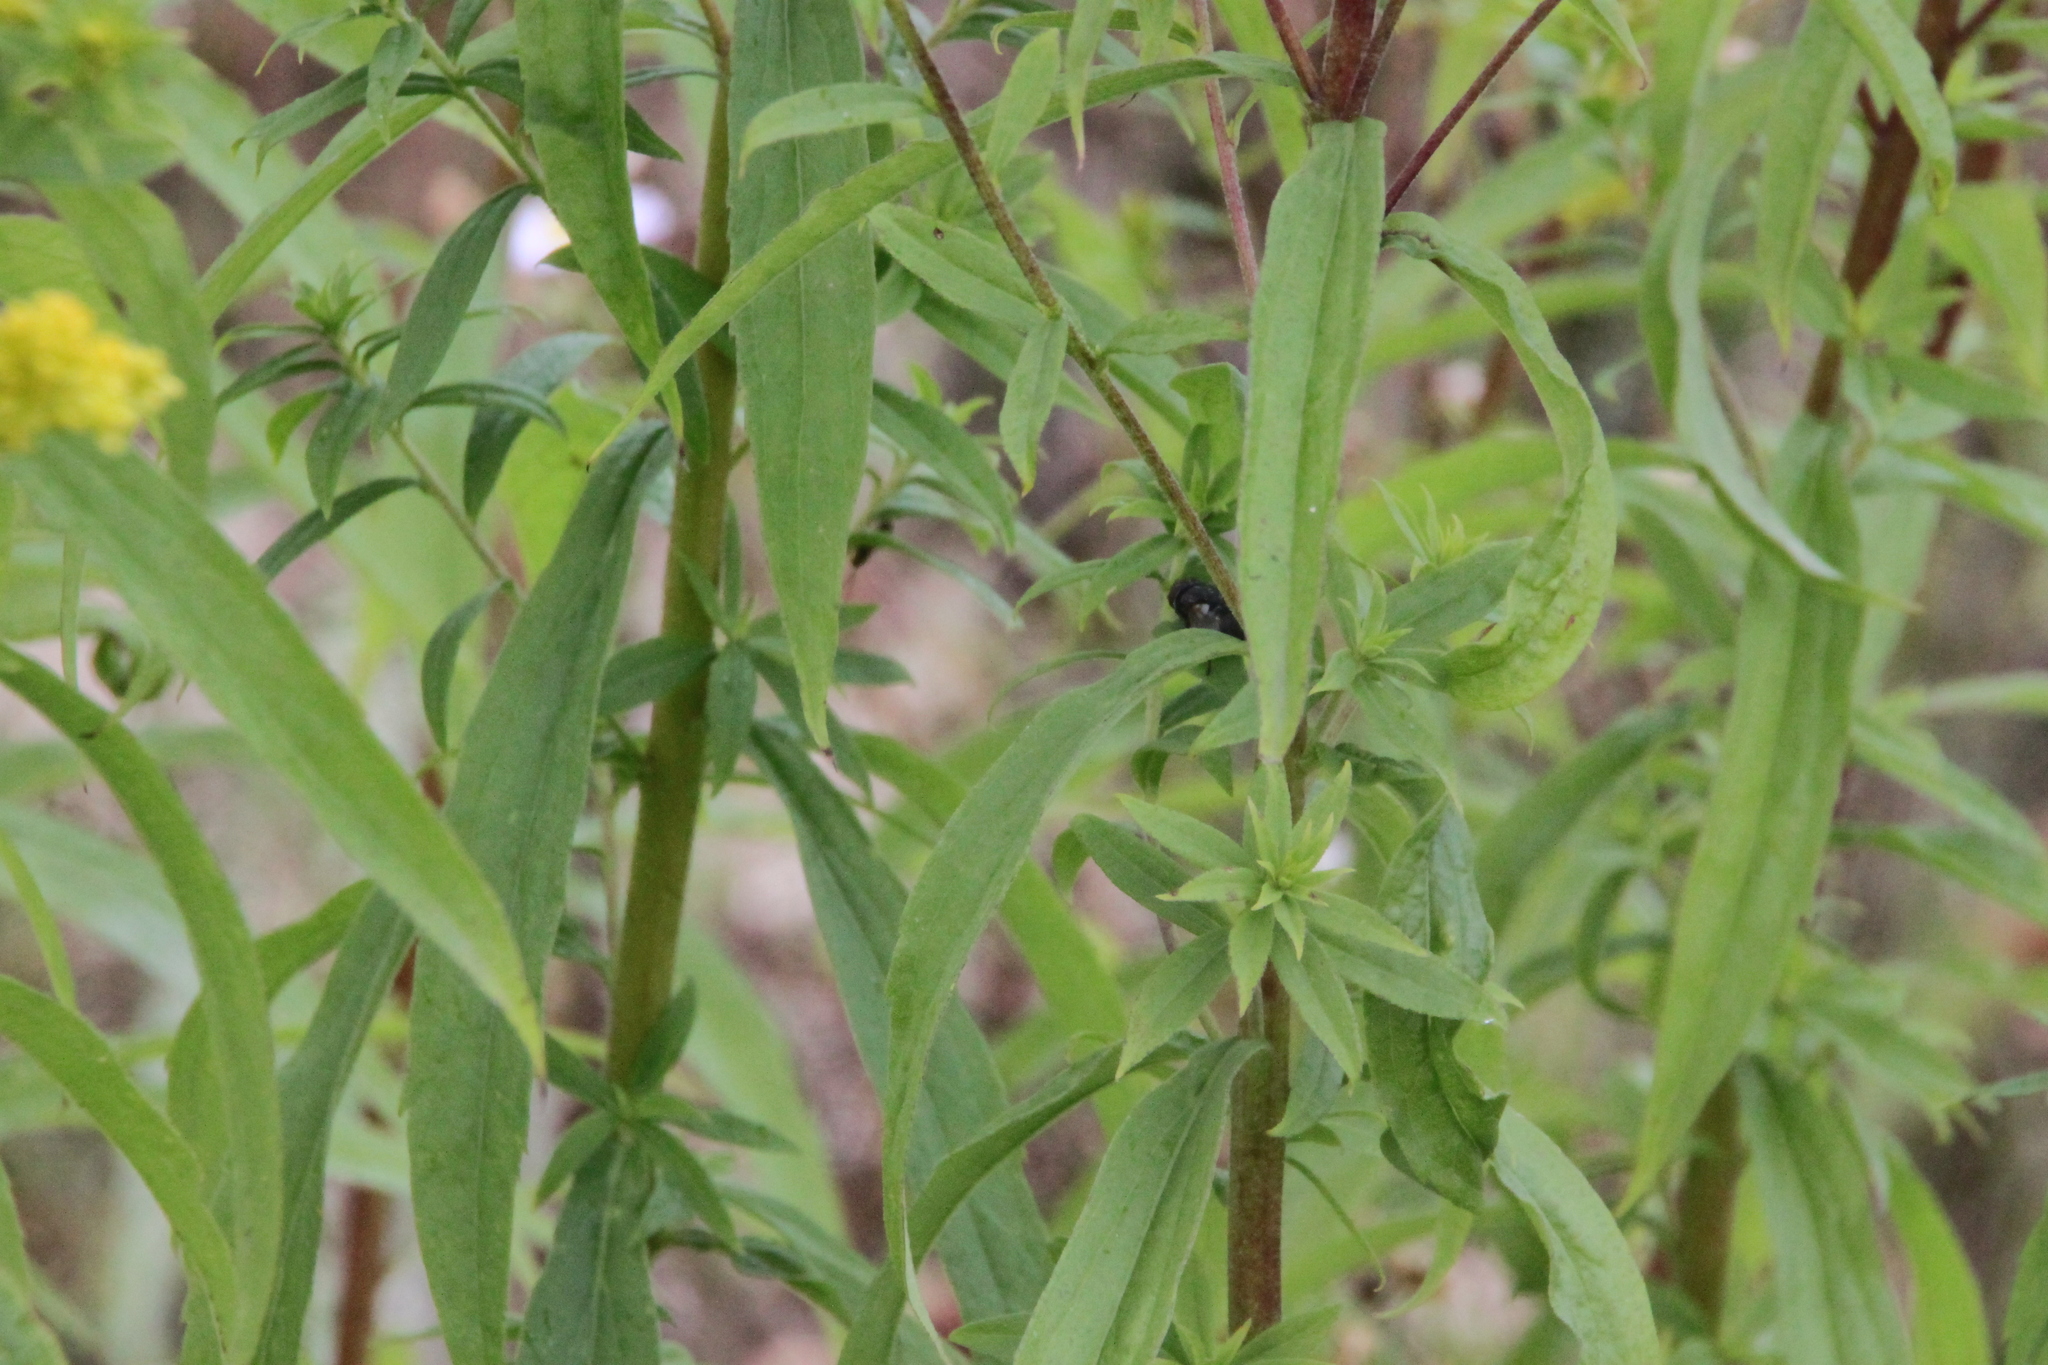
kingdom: Plantae
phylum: Tracheophyta
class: Magnoliopsida
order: Asterales
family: Asteraceae
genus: Solidago
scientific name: Solidago canadensis
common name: Canada goldenrod
